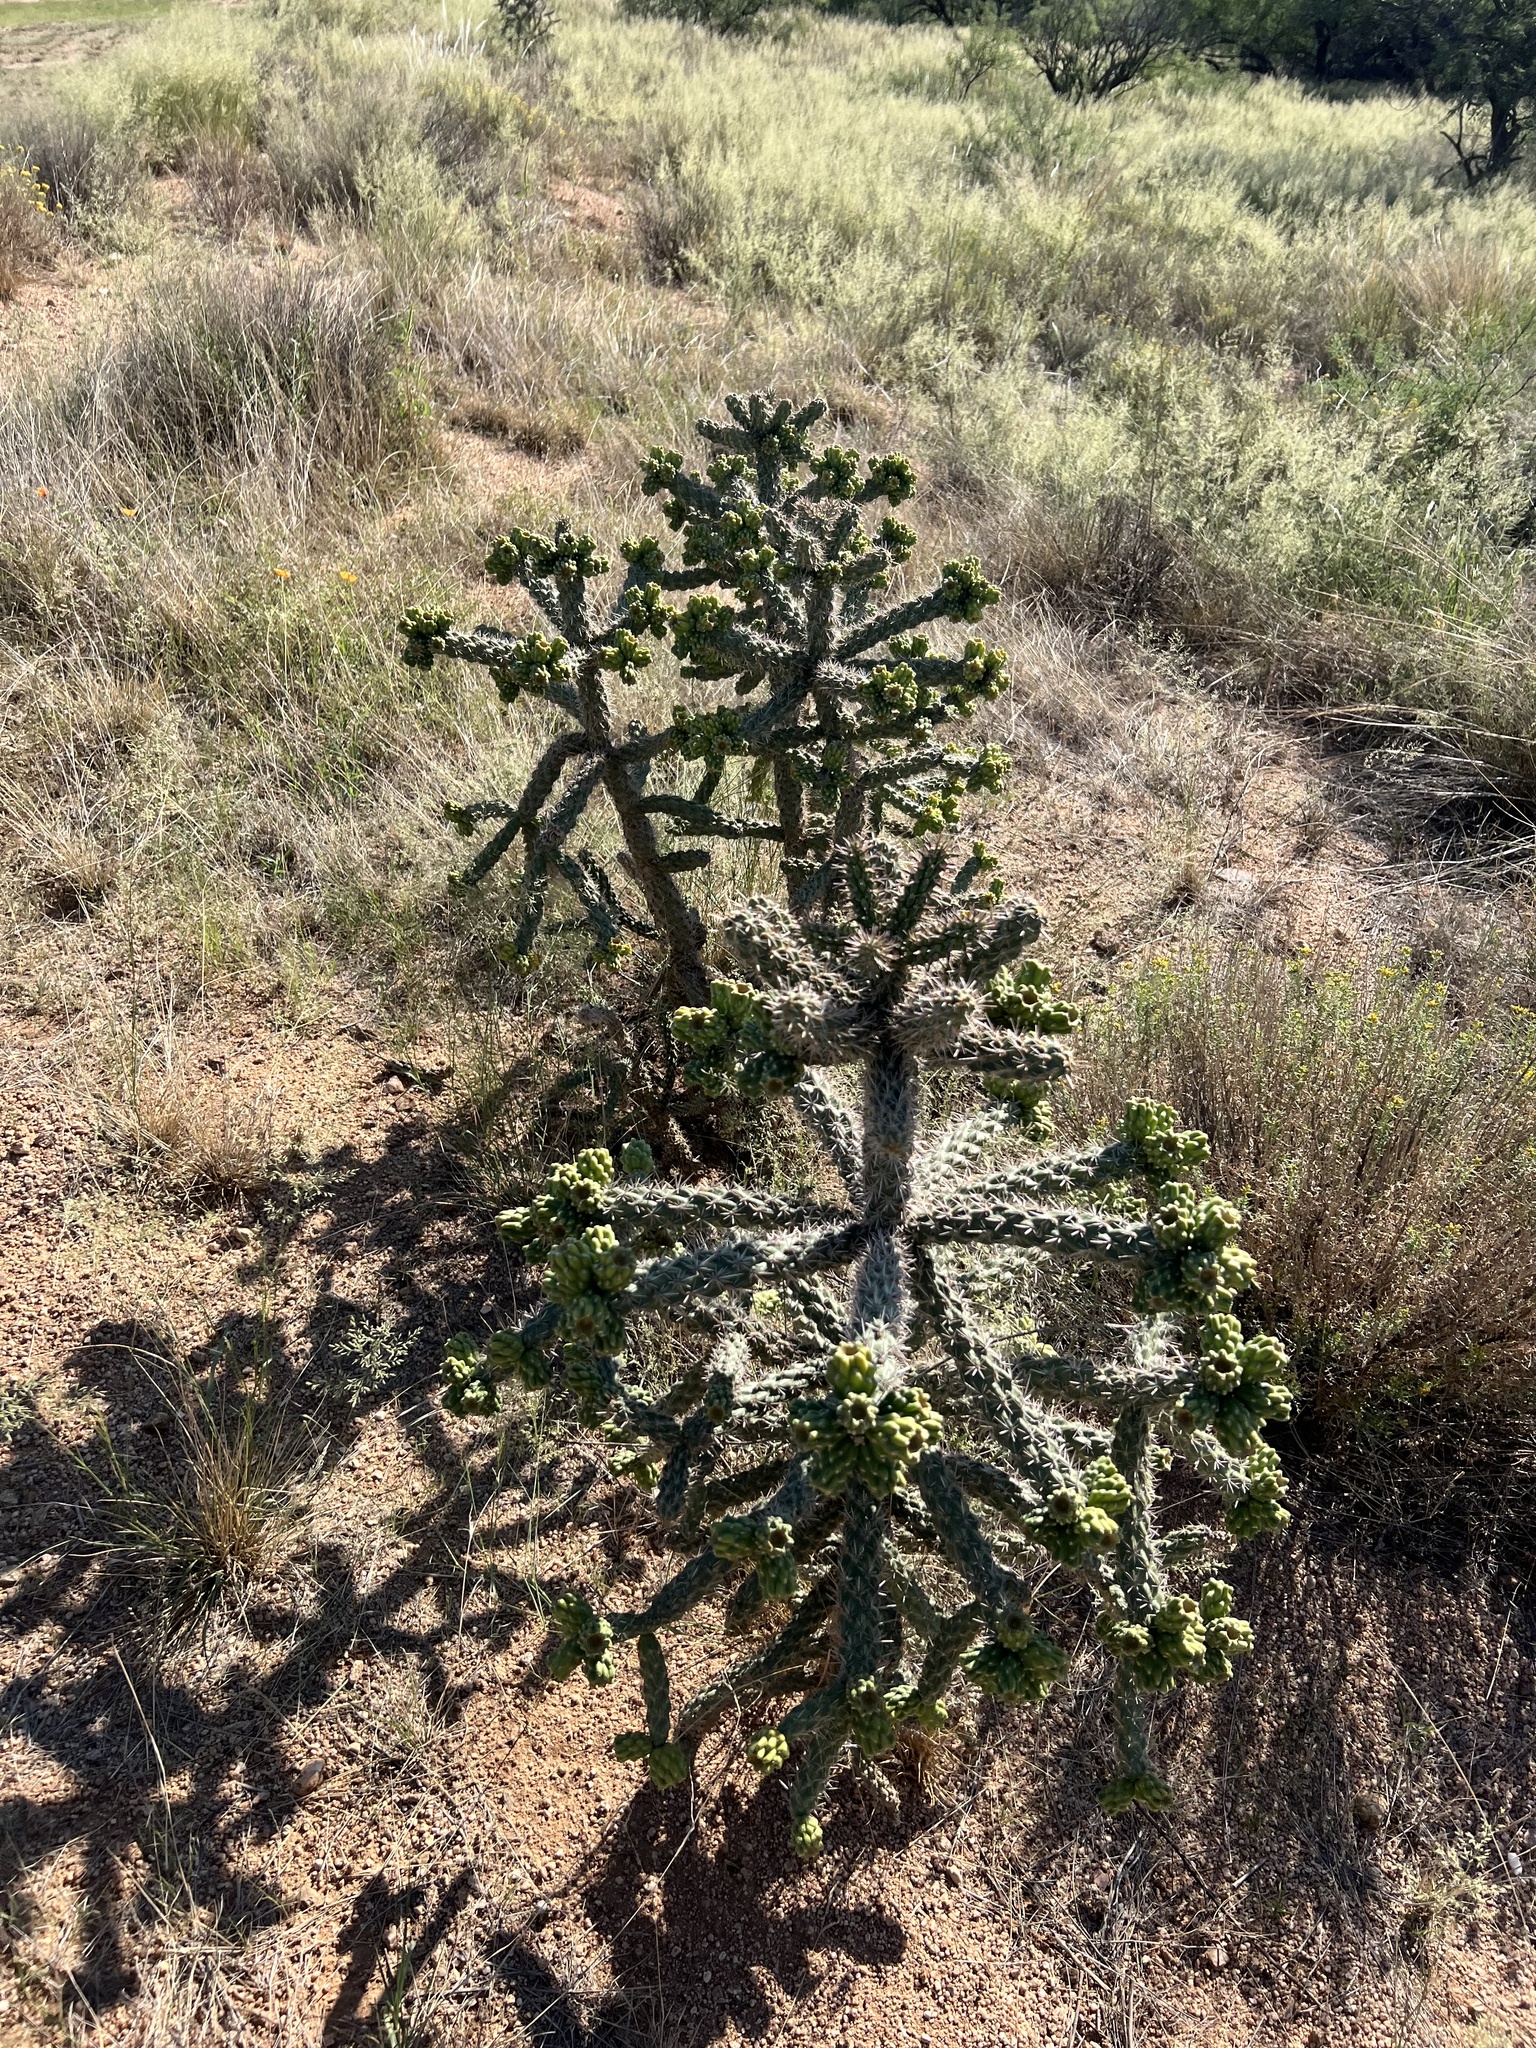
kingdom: Plantae
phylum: Tracheophyta
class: Magnoliopsida
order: Caryophyllales
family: Cactaceae
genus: Cylindropuntia
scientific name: Cylindropuntia imbricata
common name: Candelabrum cactus
